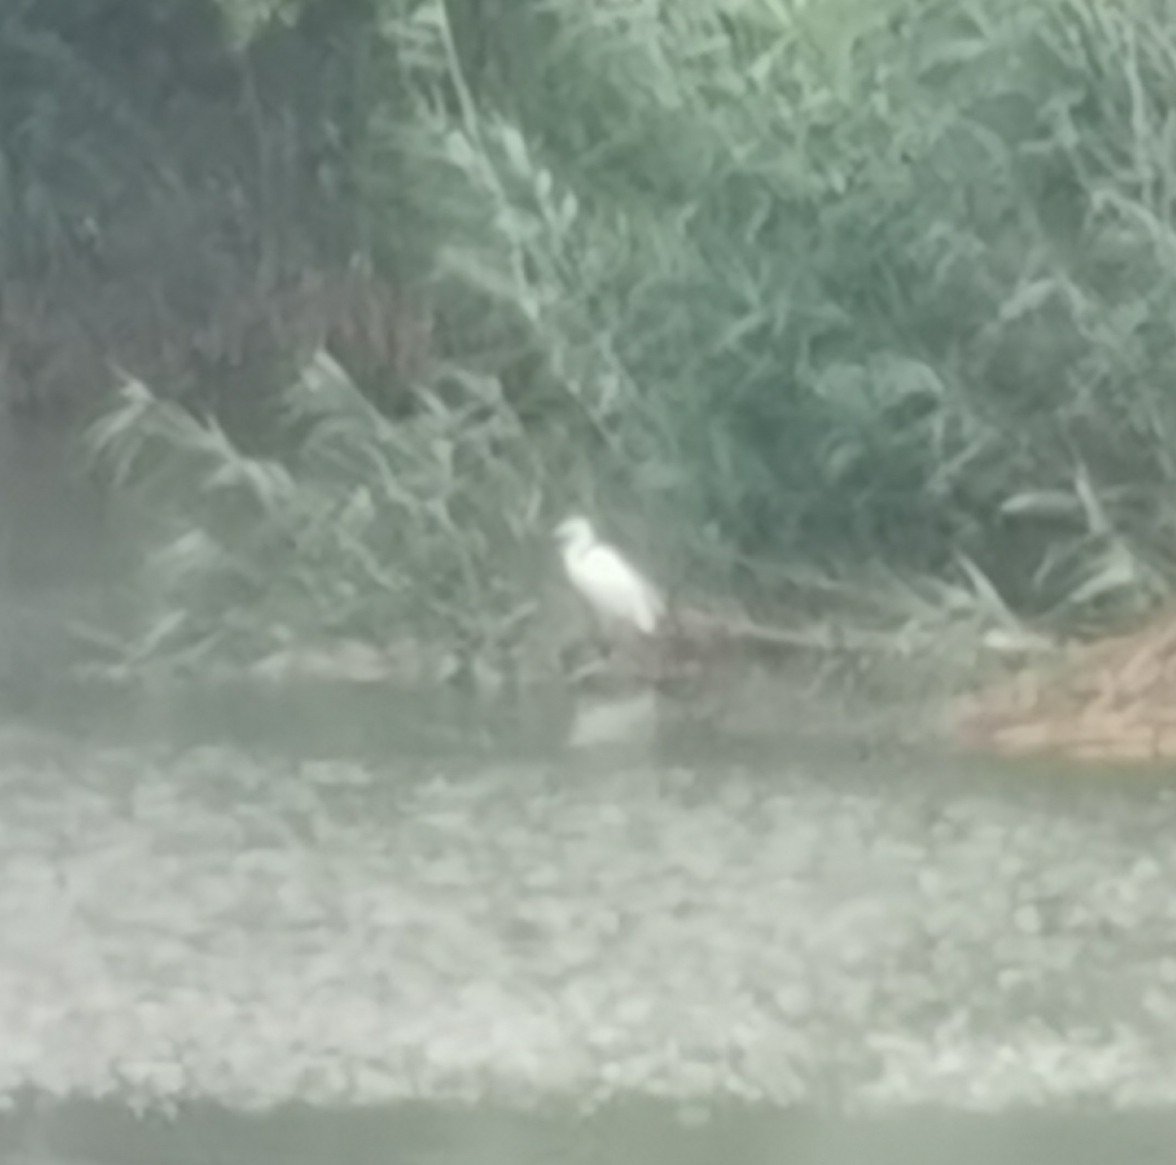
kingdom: Animalia
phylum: Chordata
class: Aves
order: Pelecaniformes
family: Ardeidae
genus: Ardea
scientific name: Ardea alba
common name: Great egret
